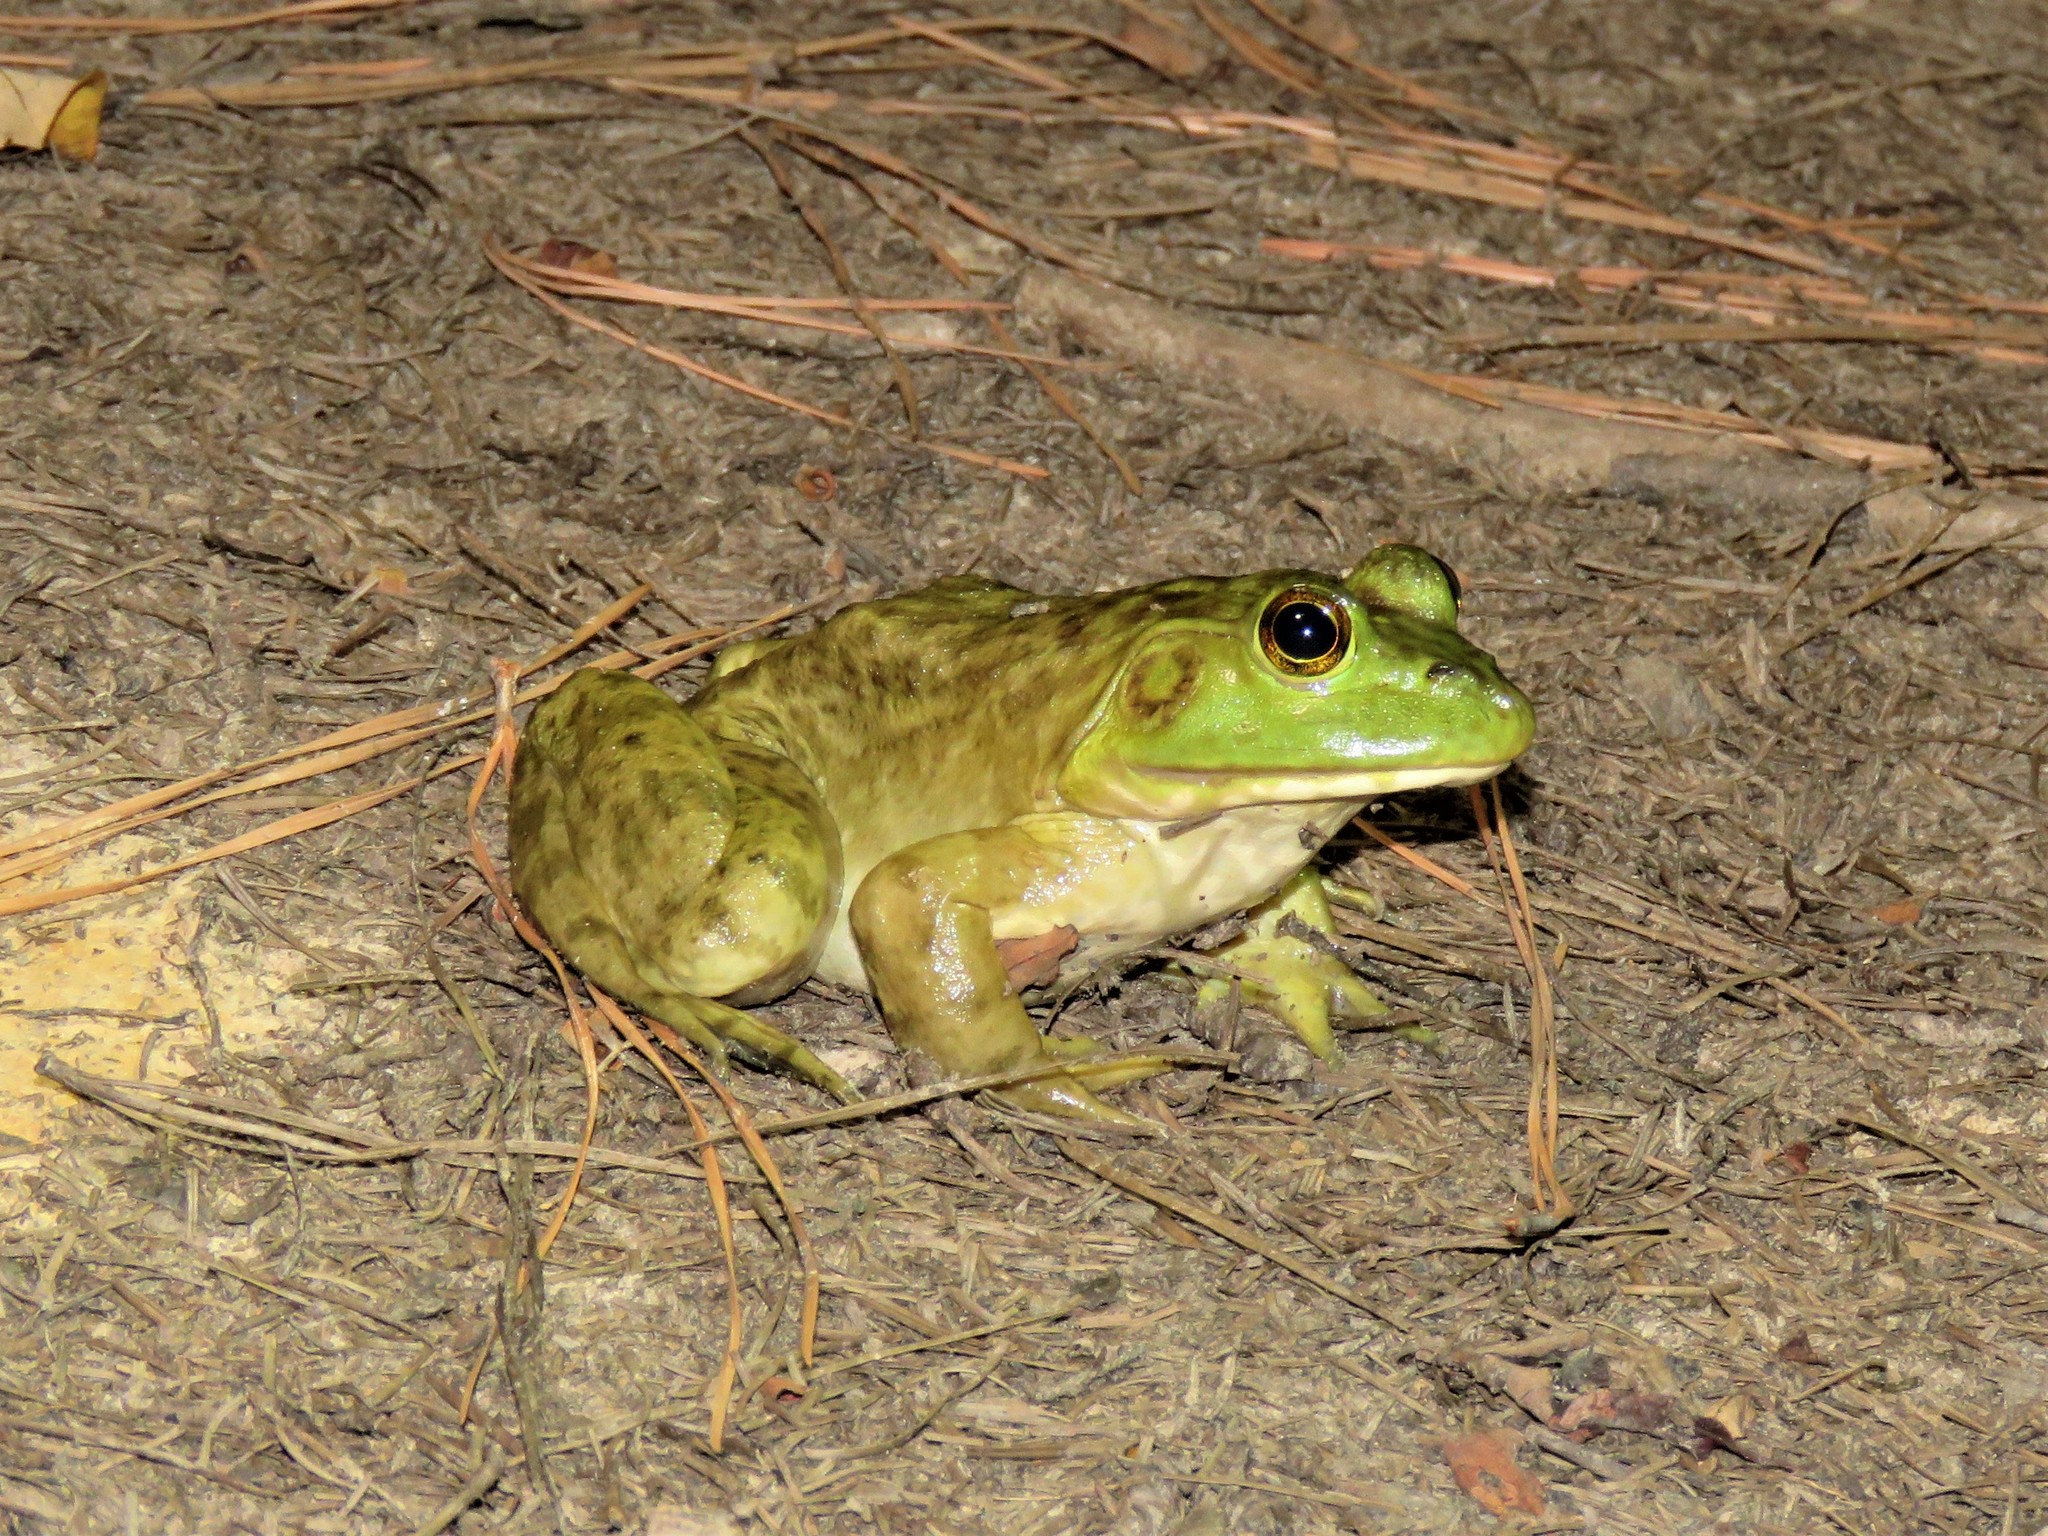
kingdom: Animalia
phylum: Chordata
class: Amphibia
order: Anura
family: Ranidae
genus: Lithobates
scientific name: Lithobates catesbeianus
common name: American bullfrog
